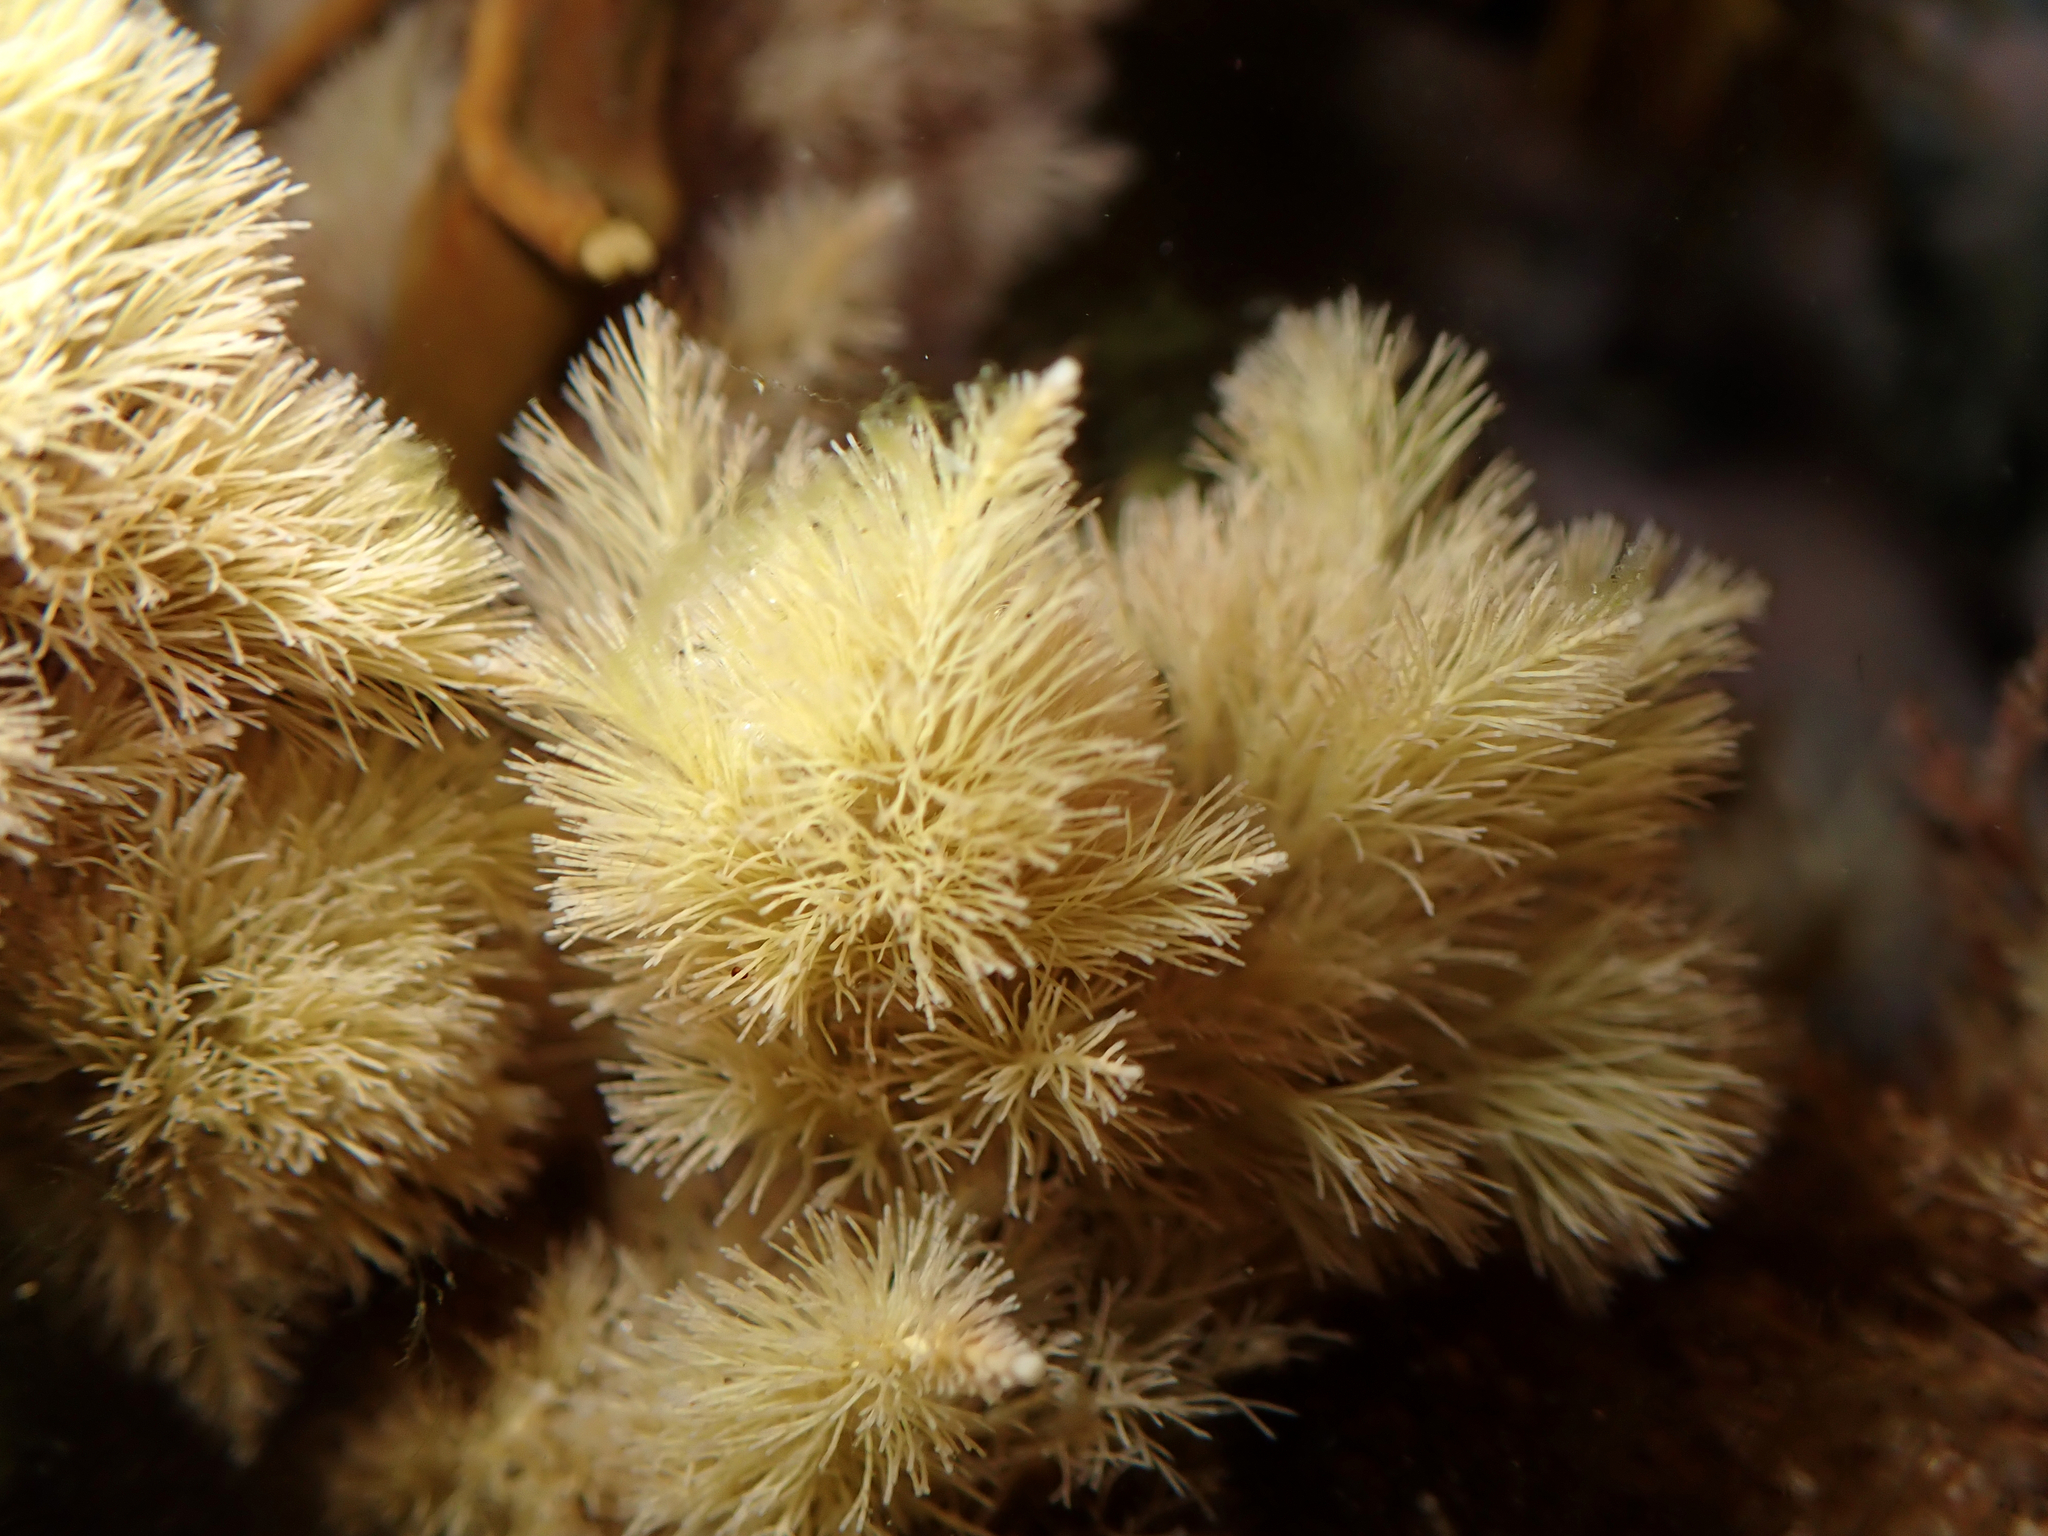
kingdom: Plantae
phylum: Rhodophyta
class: Florideophyceae
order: Corallinales
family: Corallinaceae
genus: Jania
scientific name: Jania rosea
